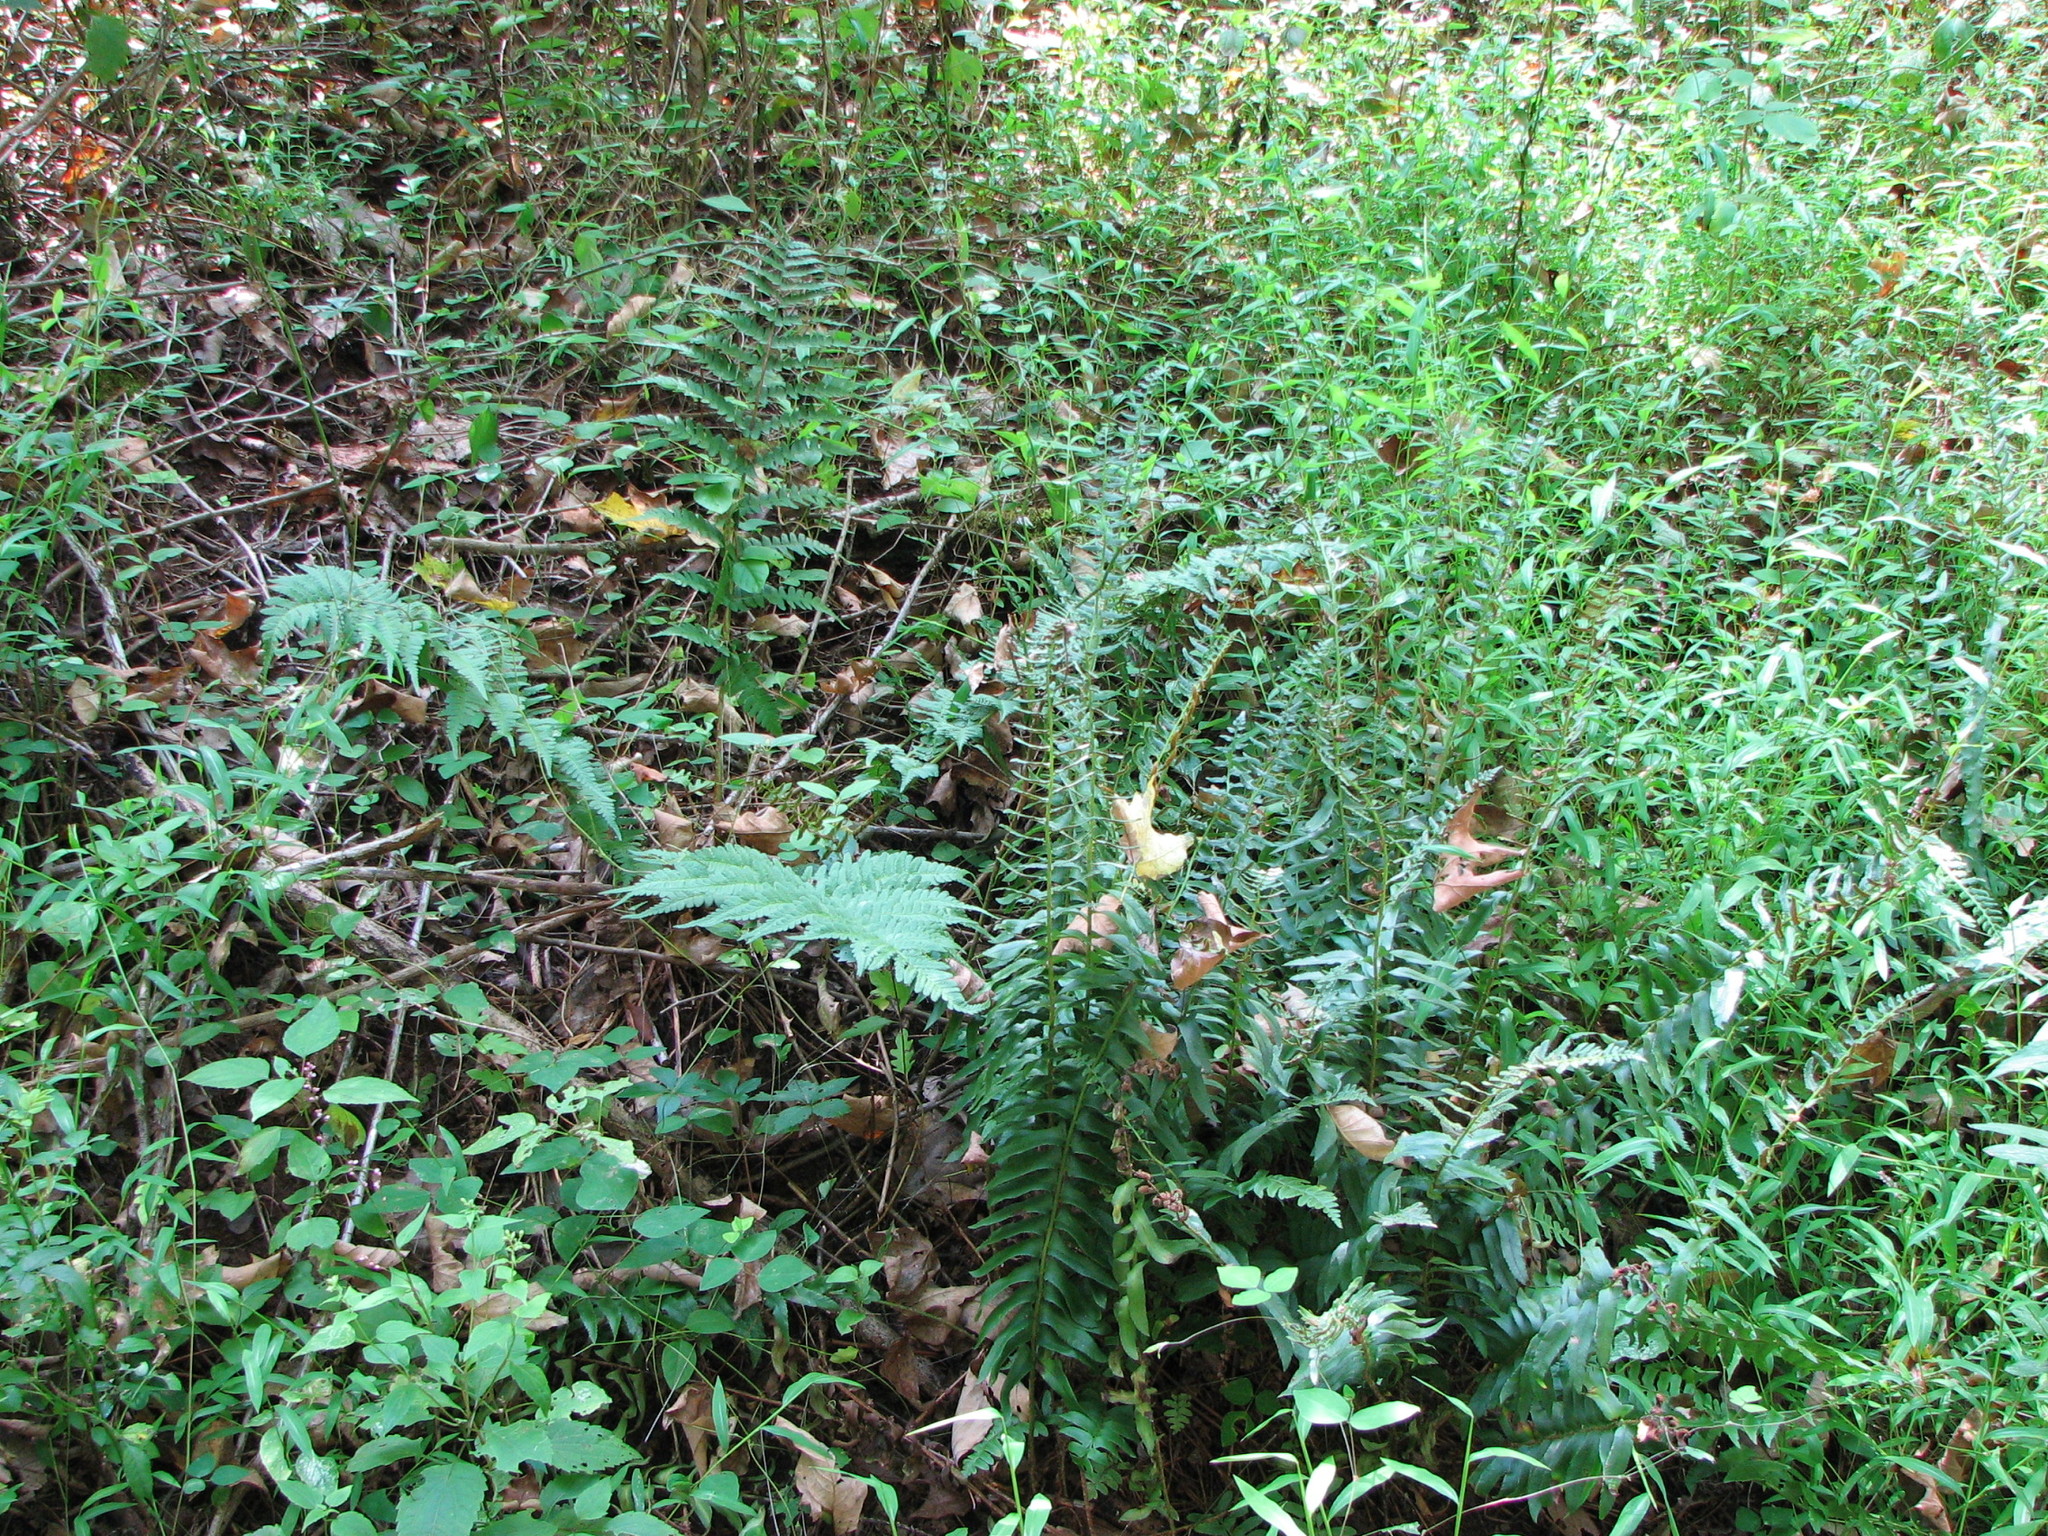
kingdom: Plantae
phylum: Tracheophyta
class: Polypodiopsida
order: Polypodiales
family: Dryopteridaceae
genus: Dryopteris
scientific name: Dryopteris marginalis
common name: Marginal wood fern
